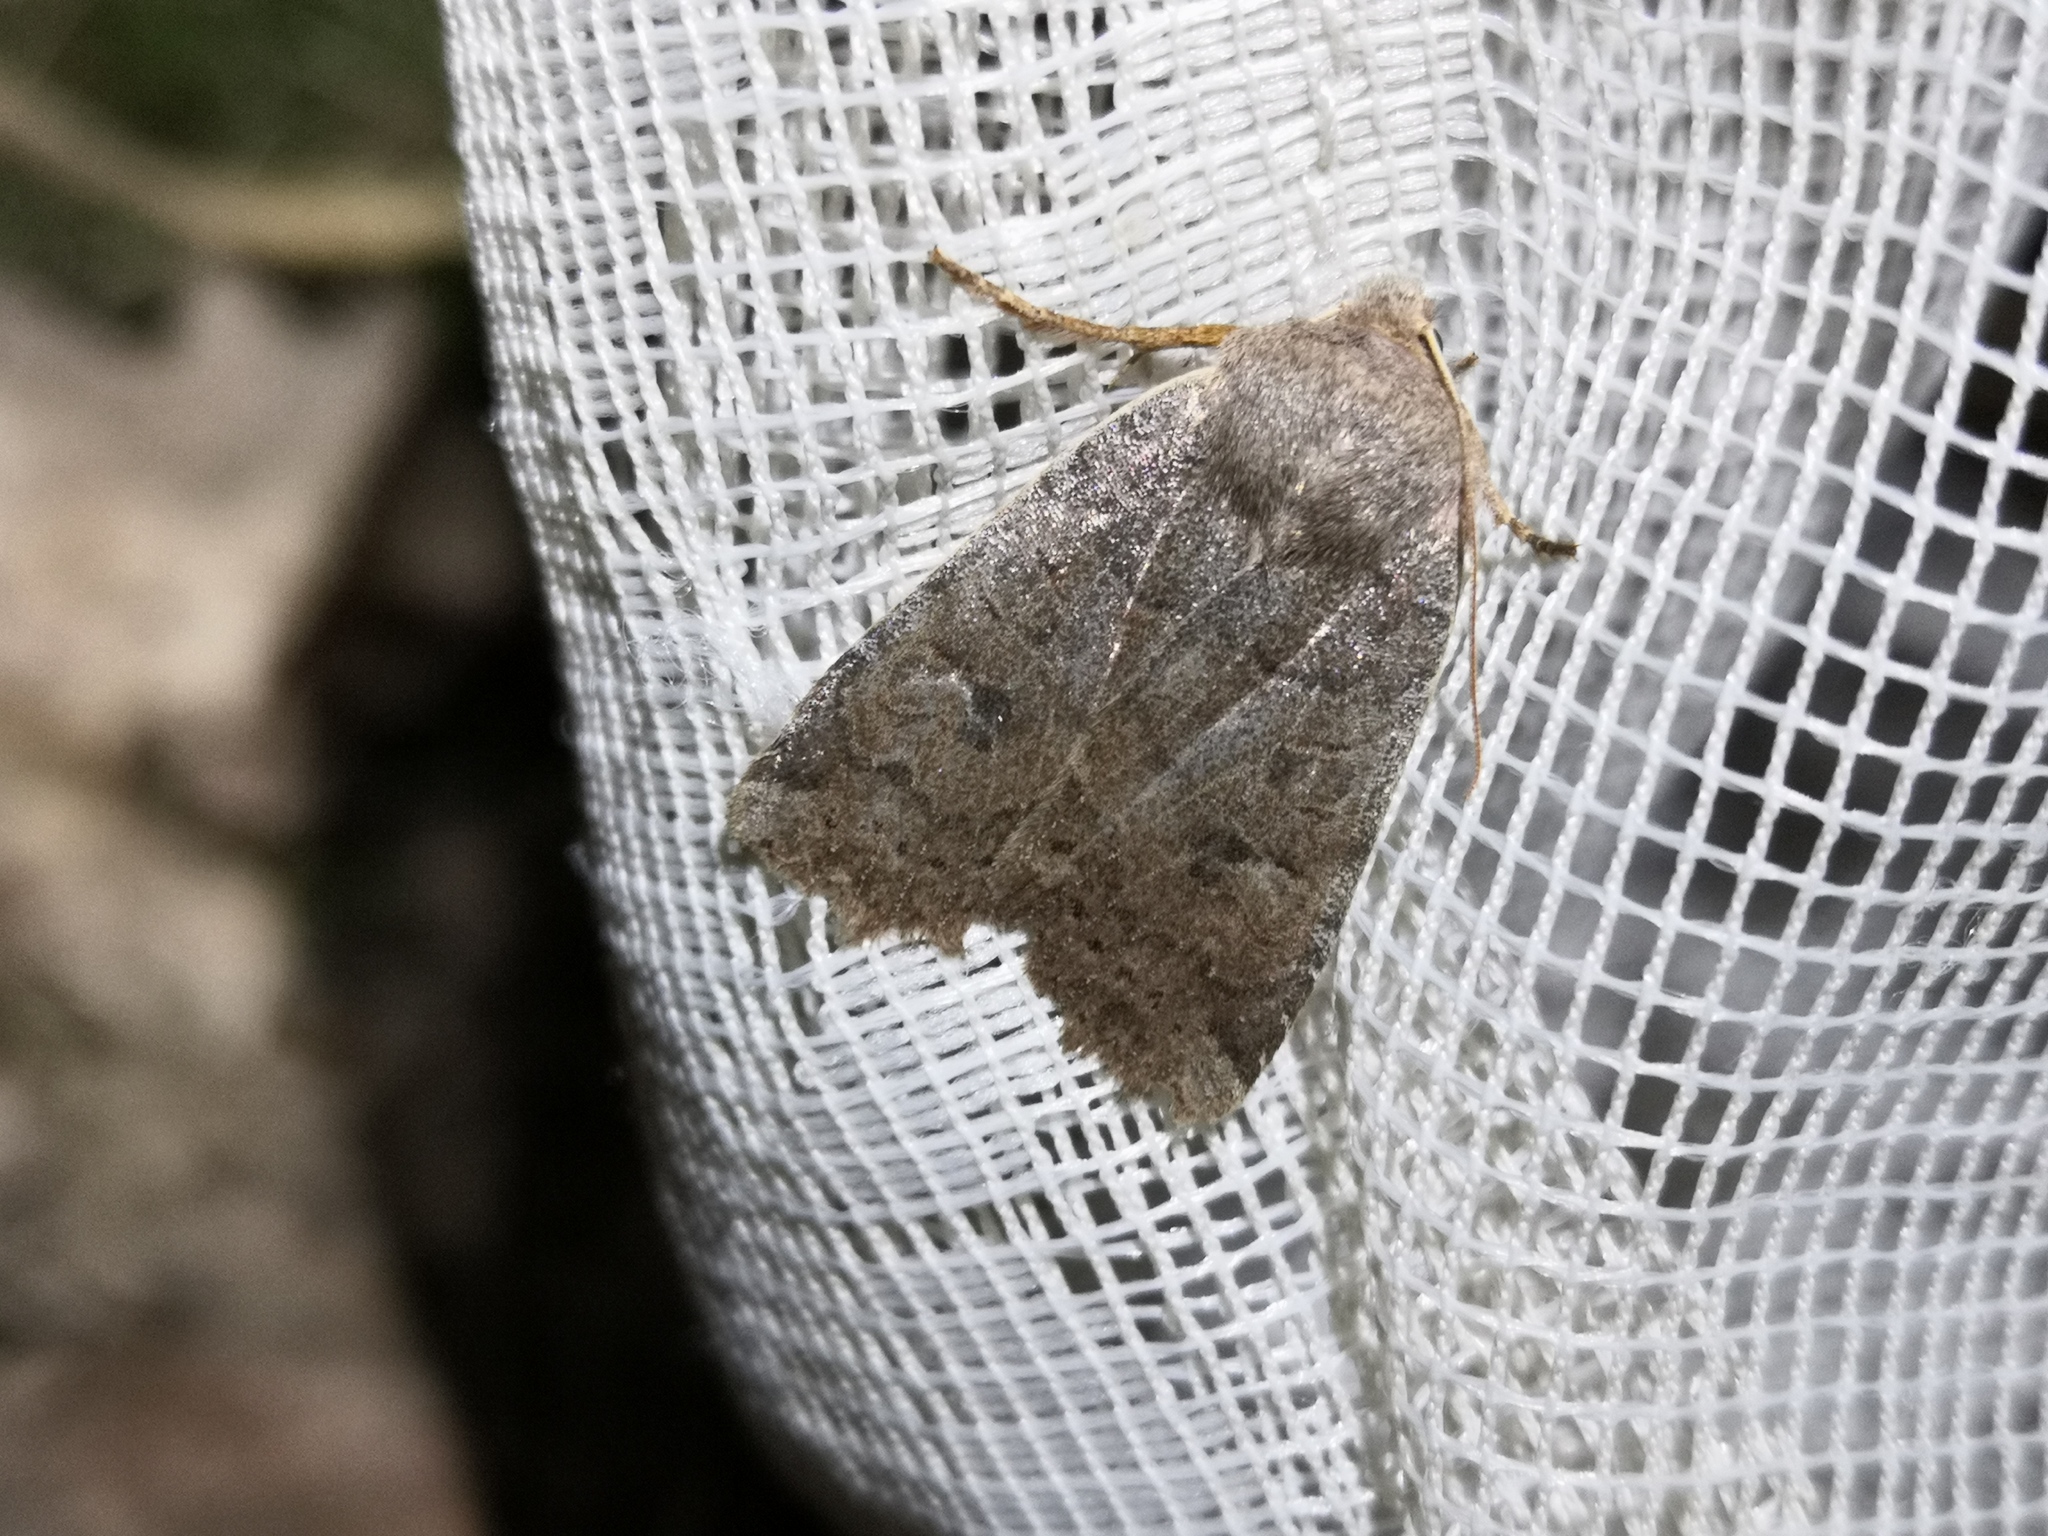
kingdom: Animalia
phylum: Arthropoda
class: Insecta
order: Lepidoptera
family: Noctuidae
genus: Conistra
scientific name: Conistra vaccinii
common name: Chestnut
